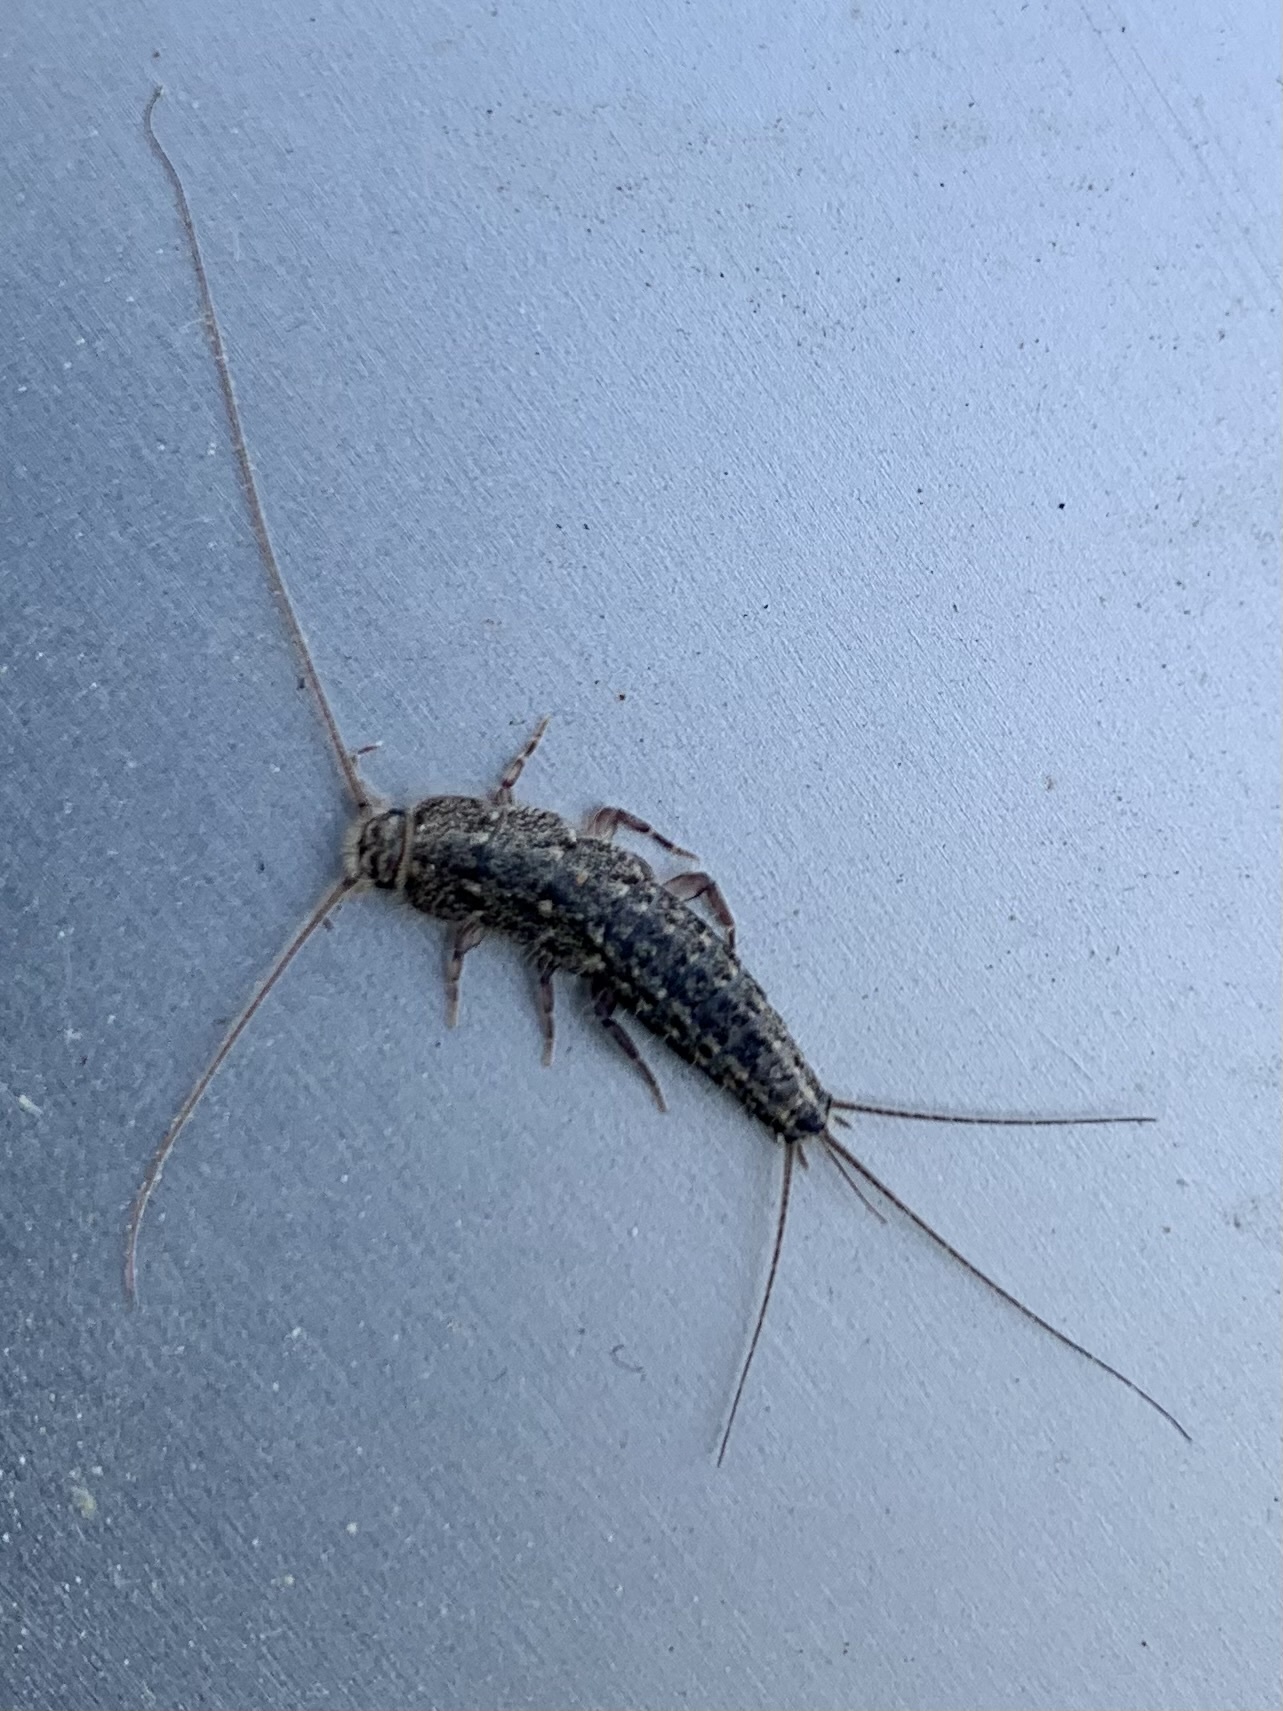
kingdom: Animalia
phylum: Arthropoda
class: Insecta
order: Zygentoma
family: Lepismatidae
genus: Ctenolepisma
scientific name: Ctenolepisma lineata
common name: Four-lined silverfish
